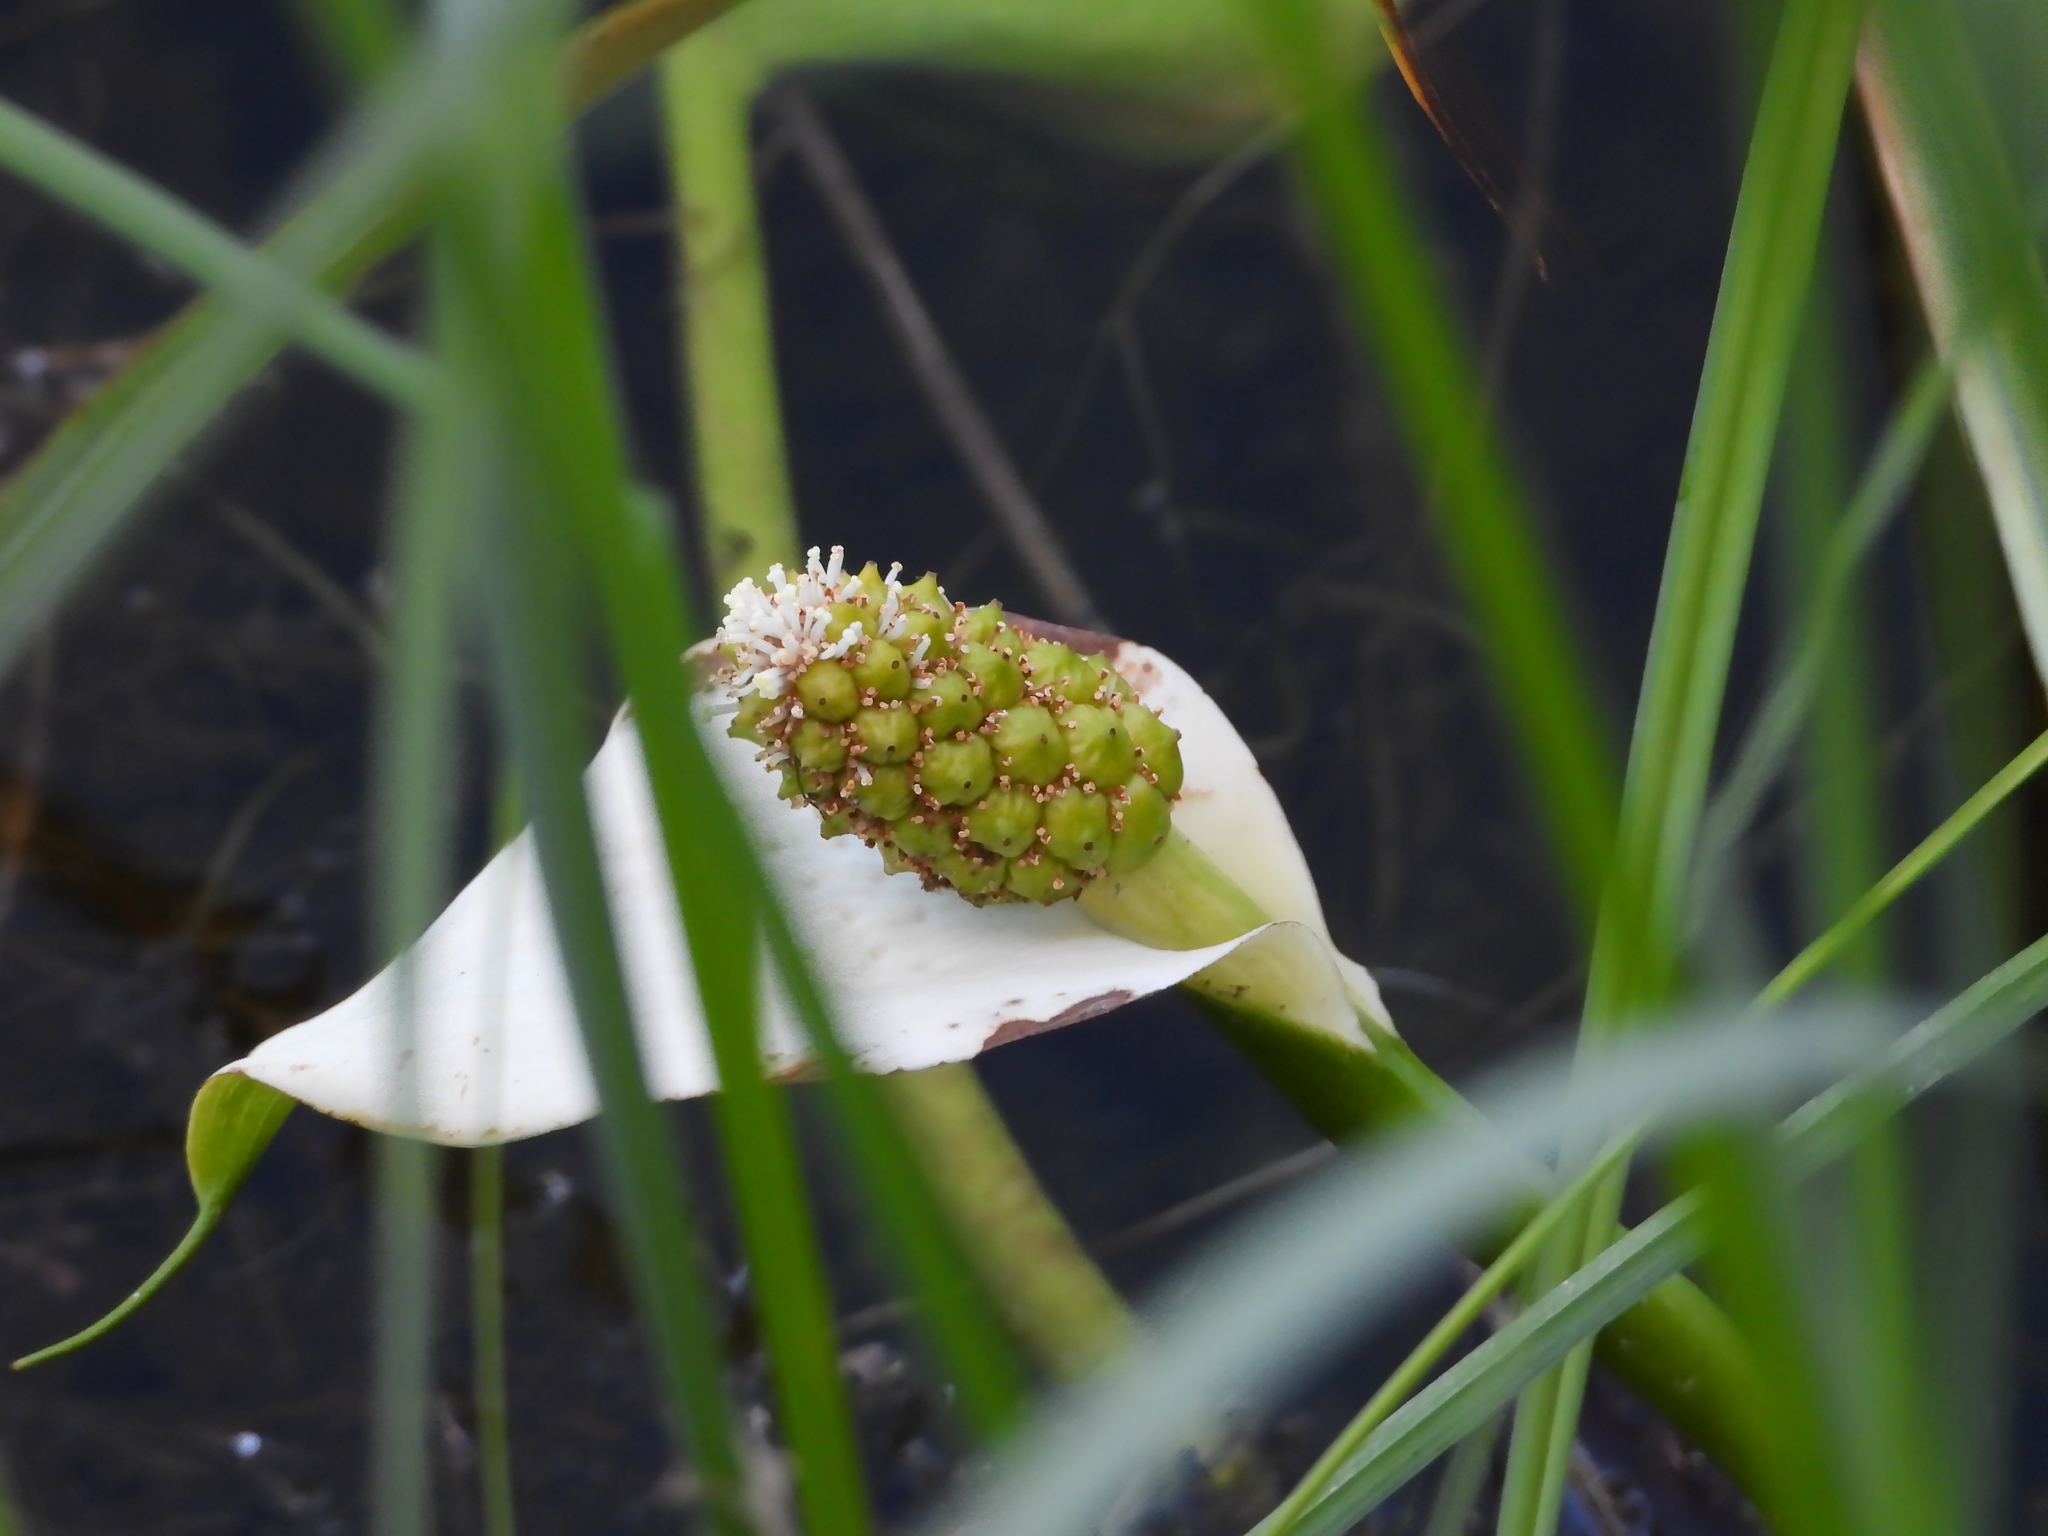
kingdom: Plantae
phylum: Tracheophyta
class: Liliopsida
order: Alismatales
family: Araceae
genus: Calla
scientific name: Calla palustris
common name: Bog arum
